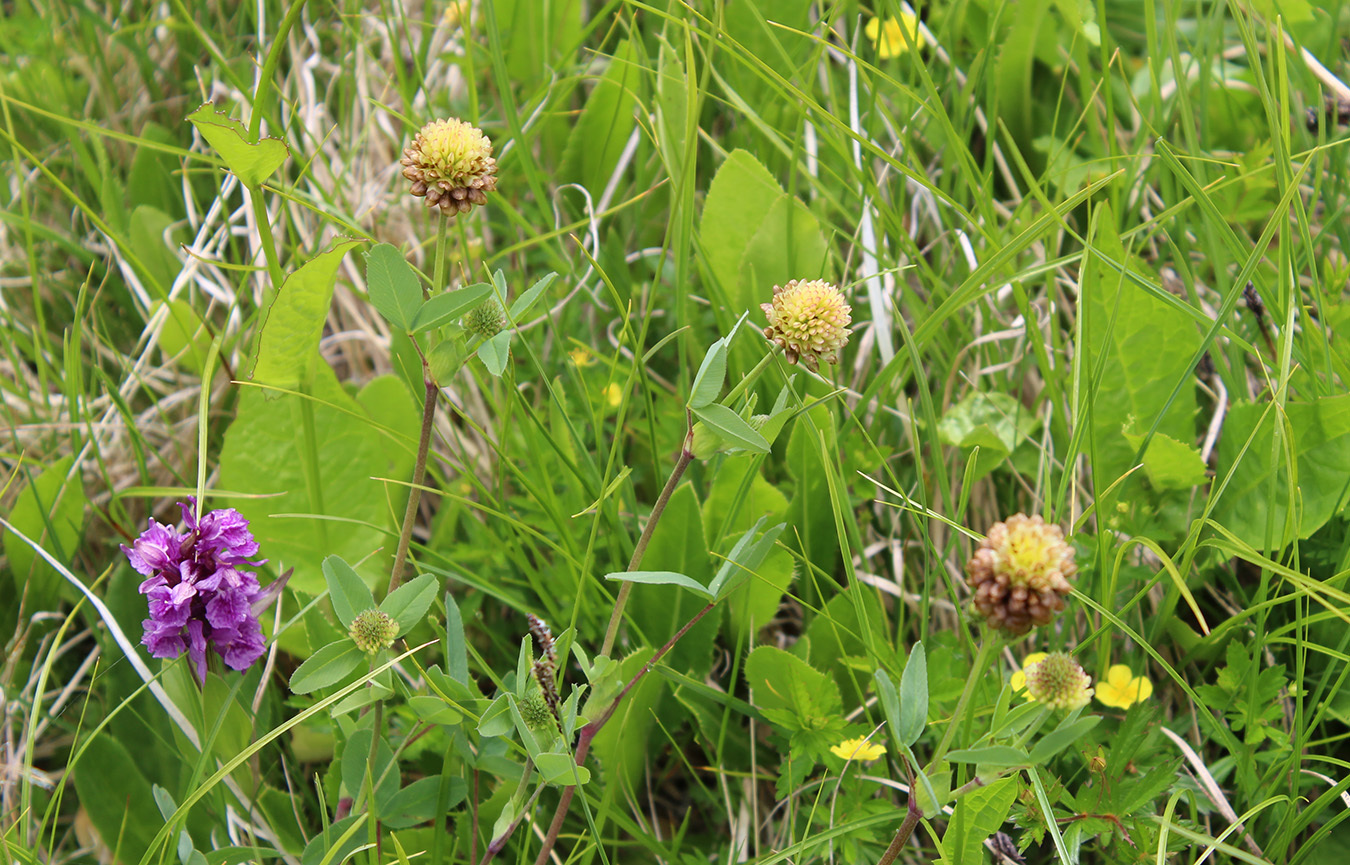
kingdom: Plantae
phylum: Tracheophyta
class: Magnoliopsida
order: Fabales
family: Fabaceae
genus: Trifolium
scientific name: Trifolium badium
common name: Brown clover
